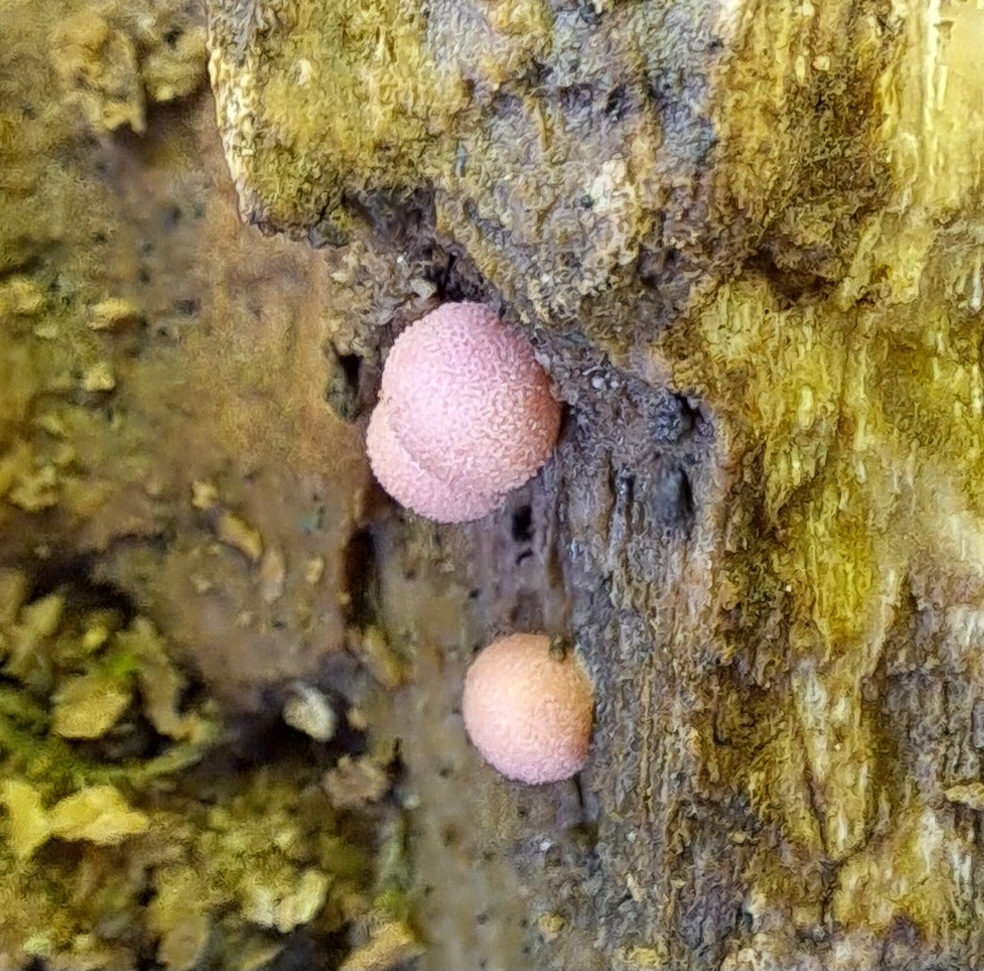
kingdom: Protozoa
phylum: Mycetozoa
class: Myxomycetes
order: Cribrariales
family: Tubiferaceae
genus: Lycogala
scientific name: Lycogala epidendrum
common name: Wolf's milk
